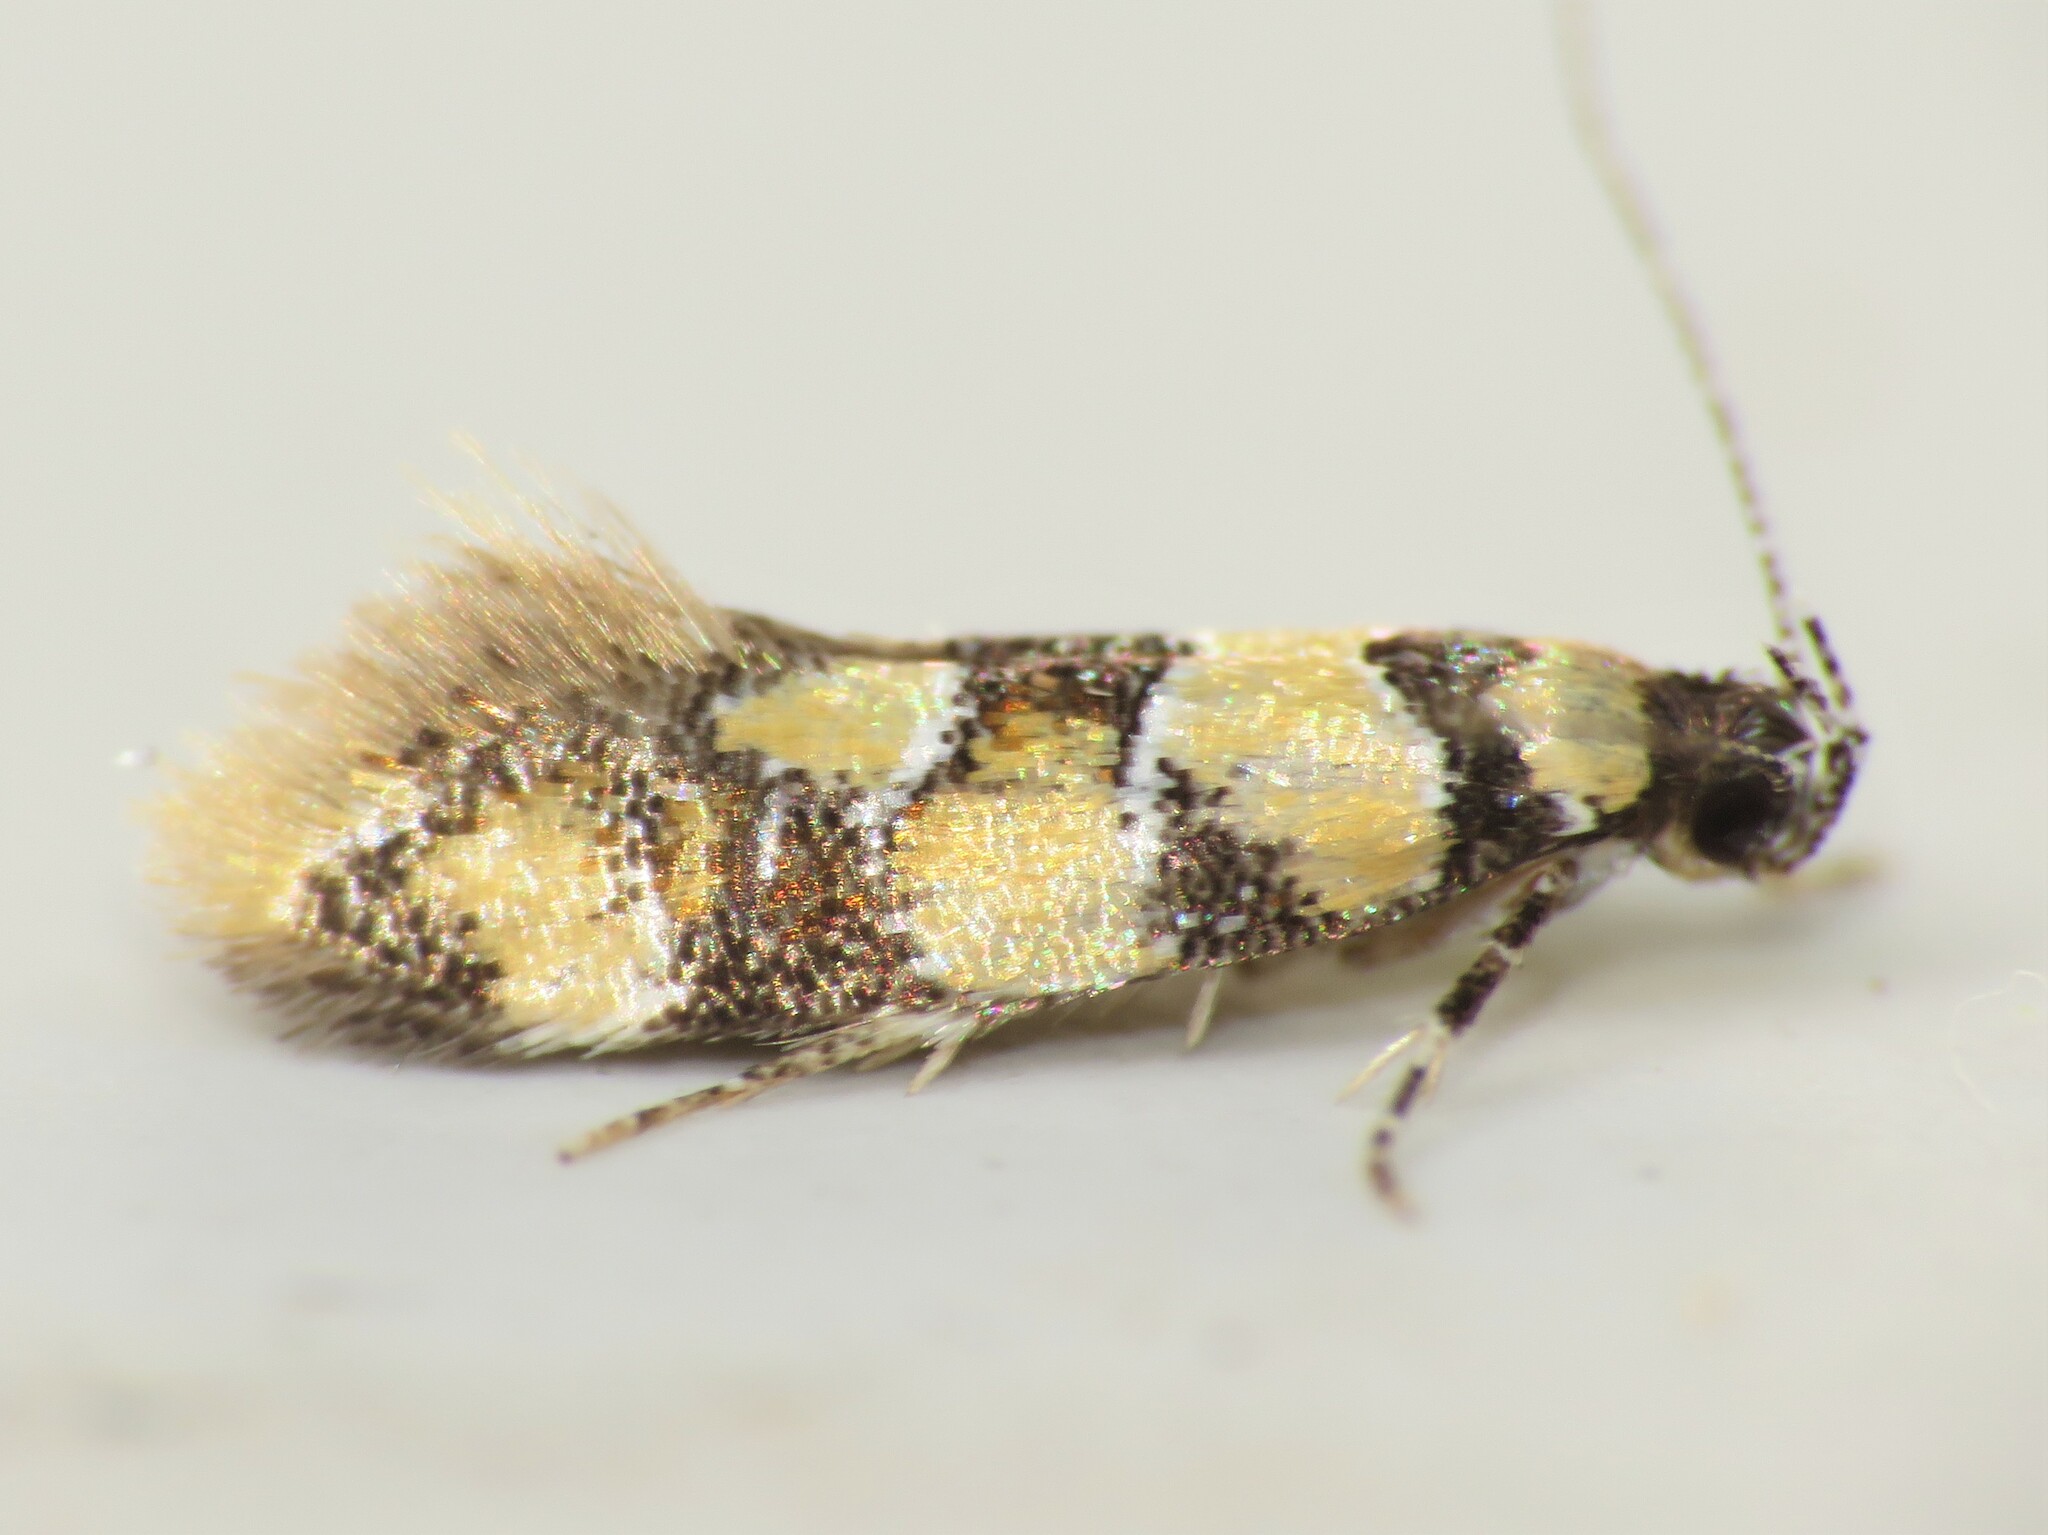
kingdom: Animalia
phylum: Arthropoda
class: Insecta
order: Lepidoptera
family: Oecophoridae
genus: Decantha
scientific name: Decantha borkhausenii
